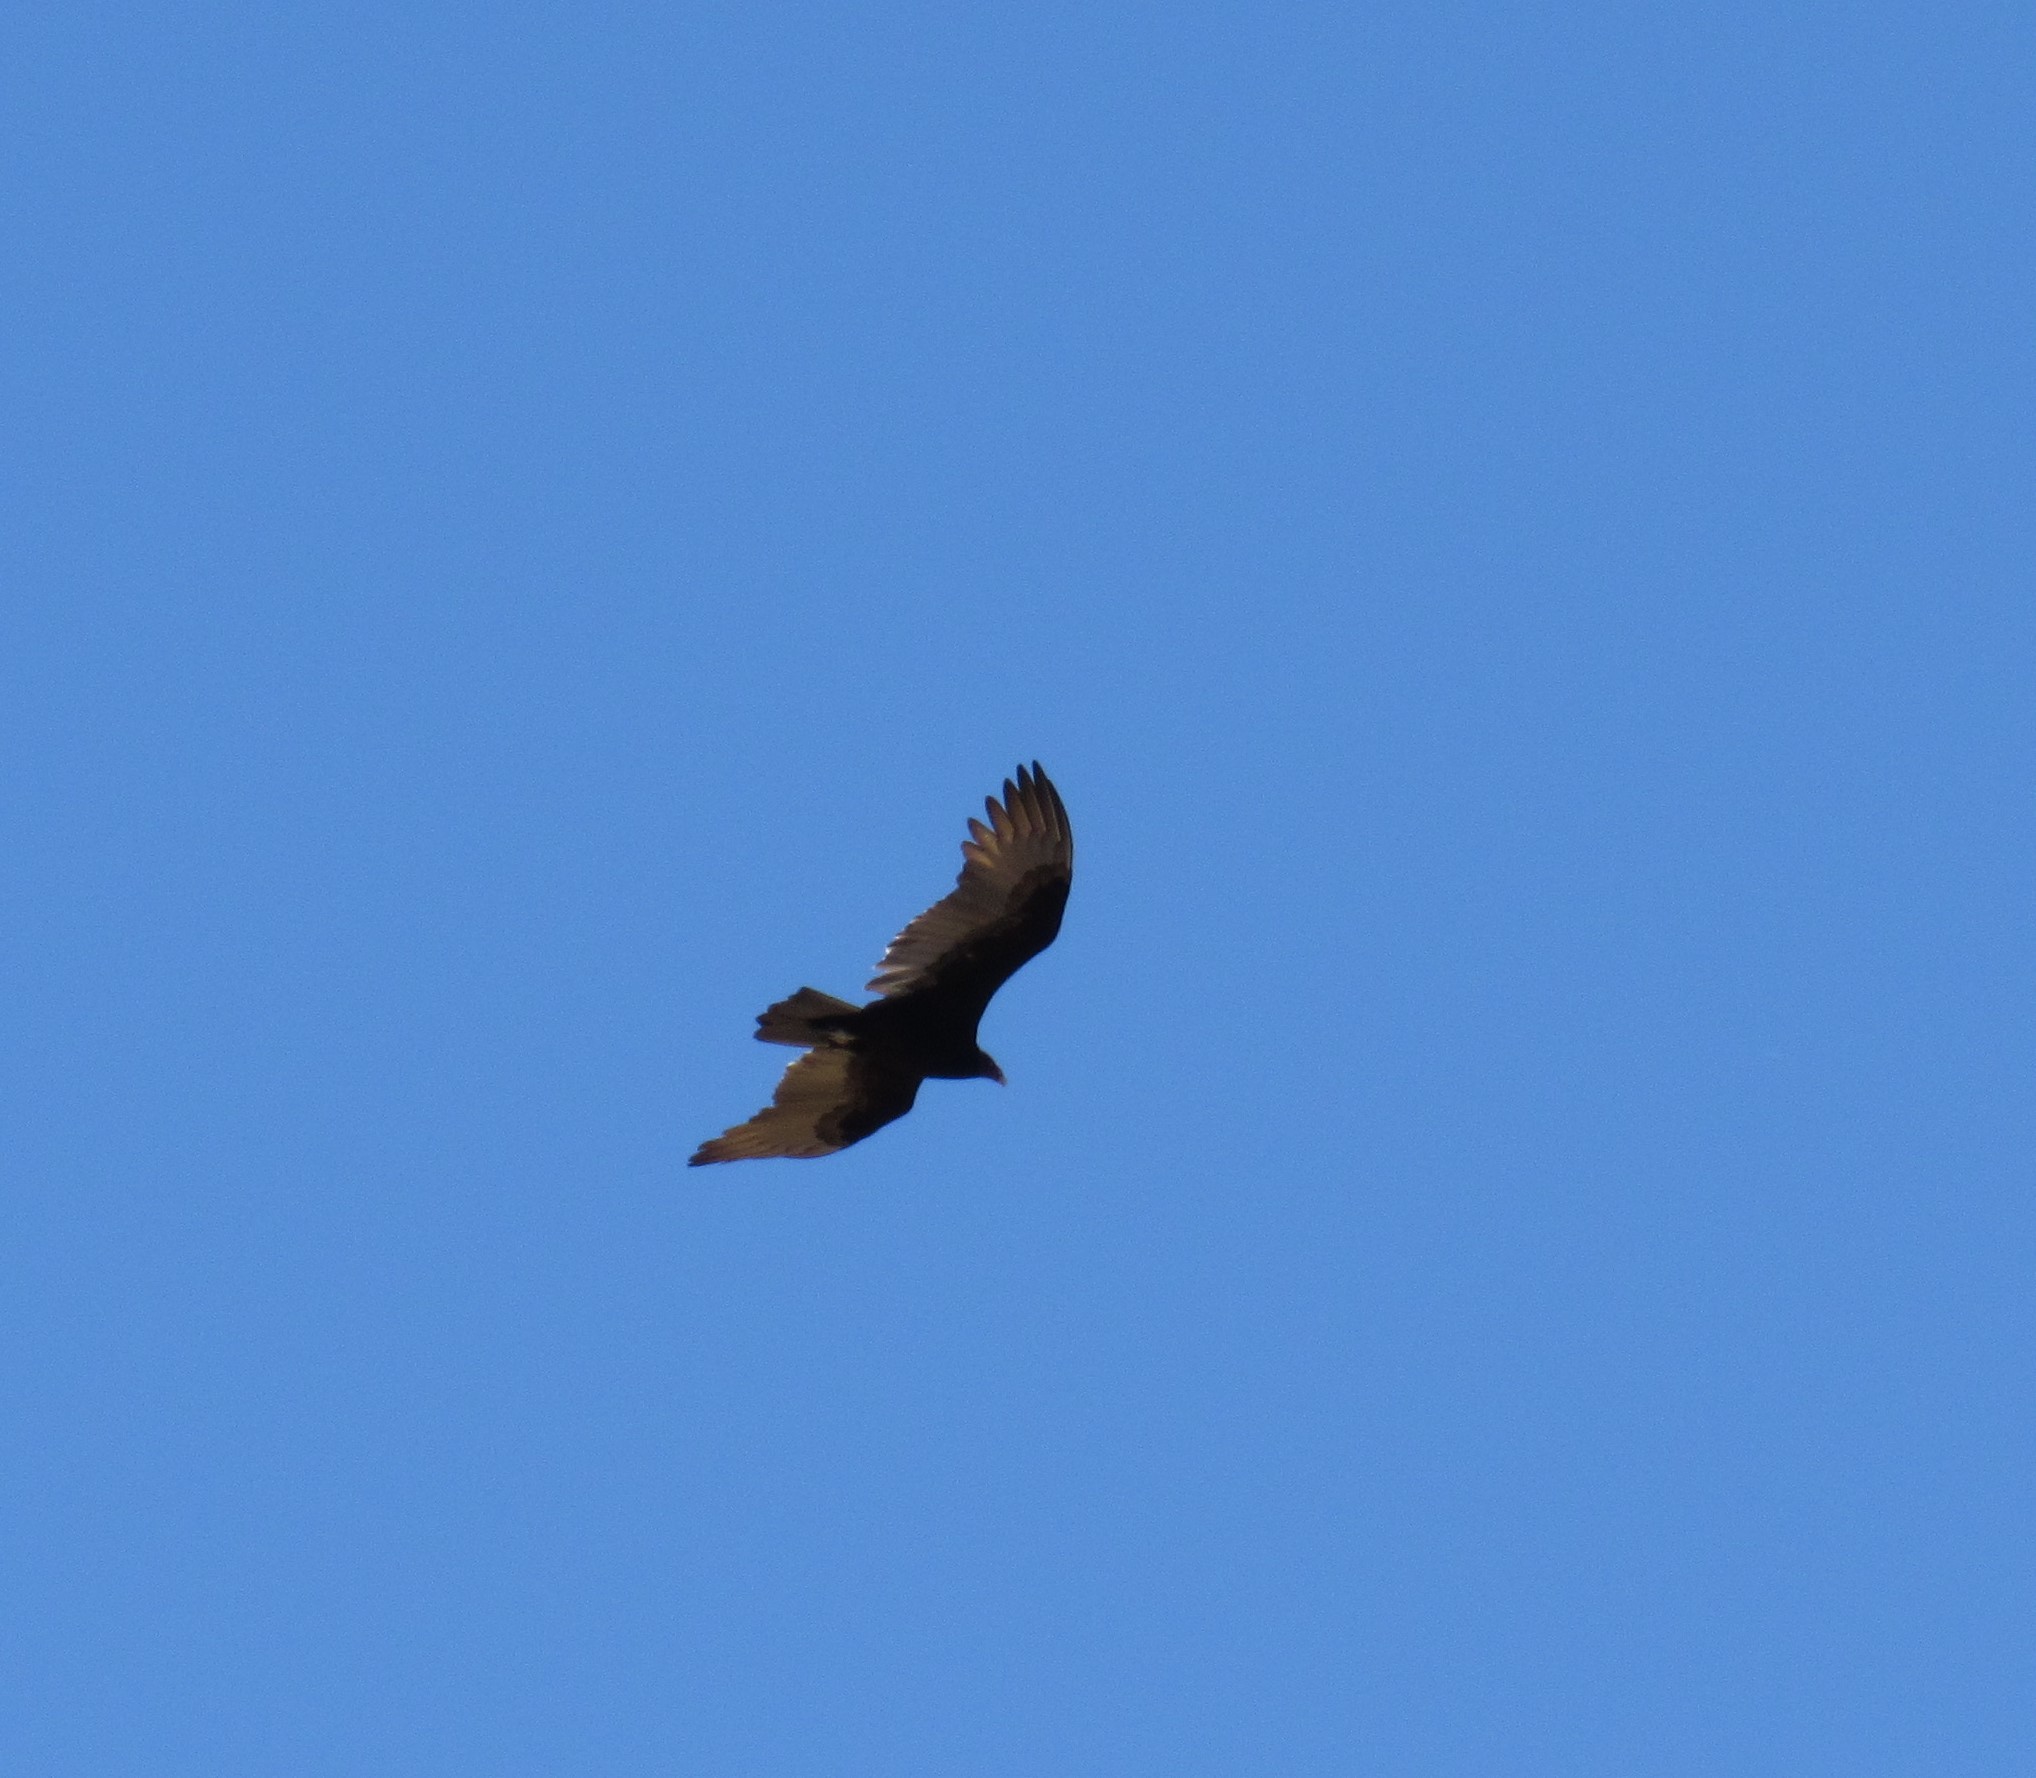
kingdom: Animalia
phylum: Chordata
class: Aves
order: Accipitriformes
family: Cathartidae
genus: Cathartes
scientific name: Cathartes aura
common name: Turkey vulture
